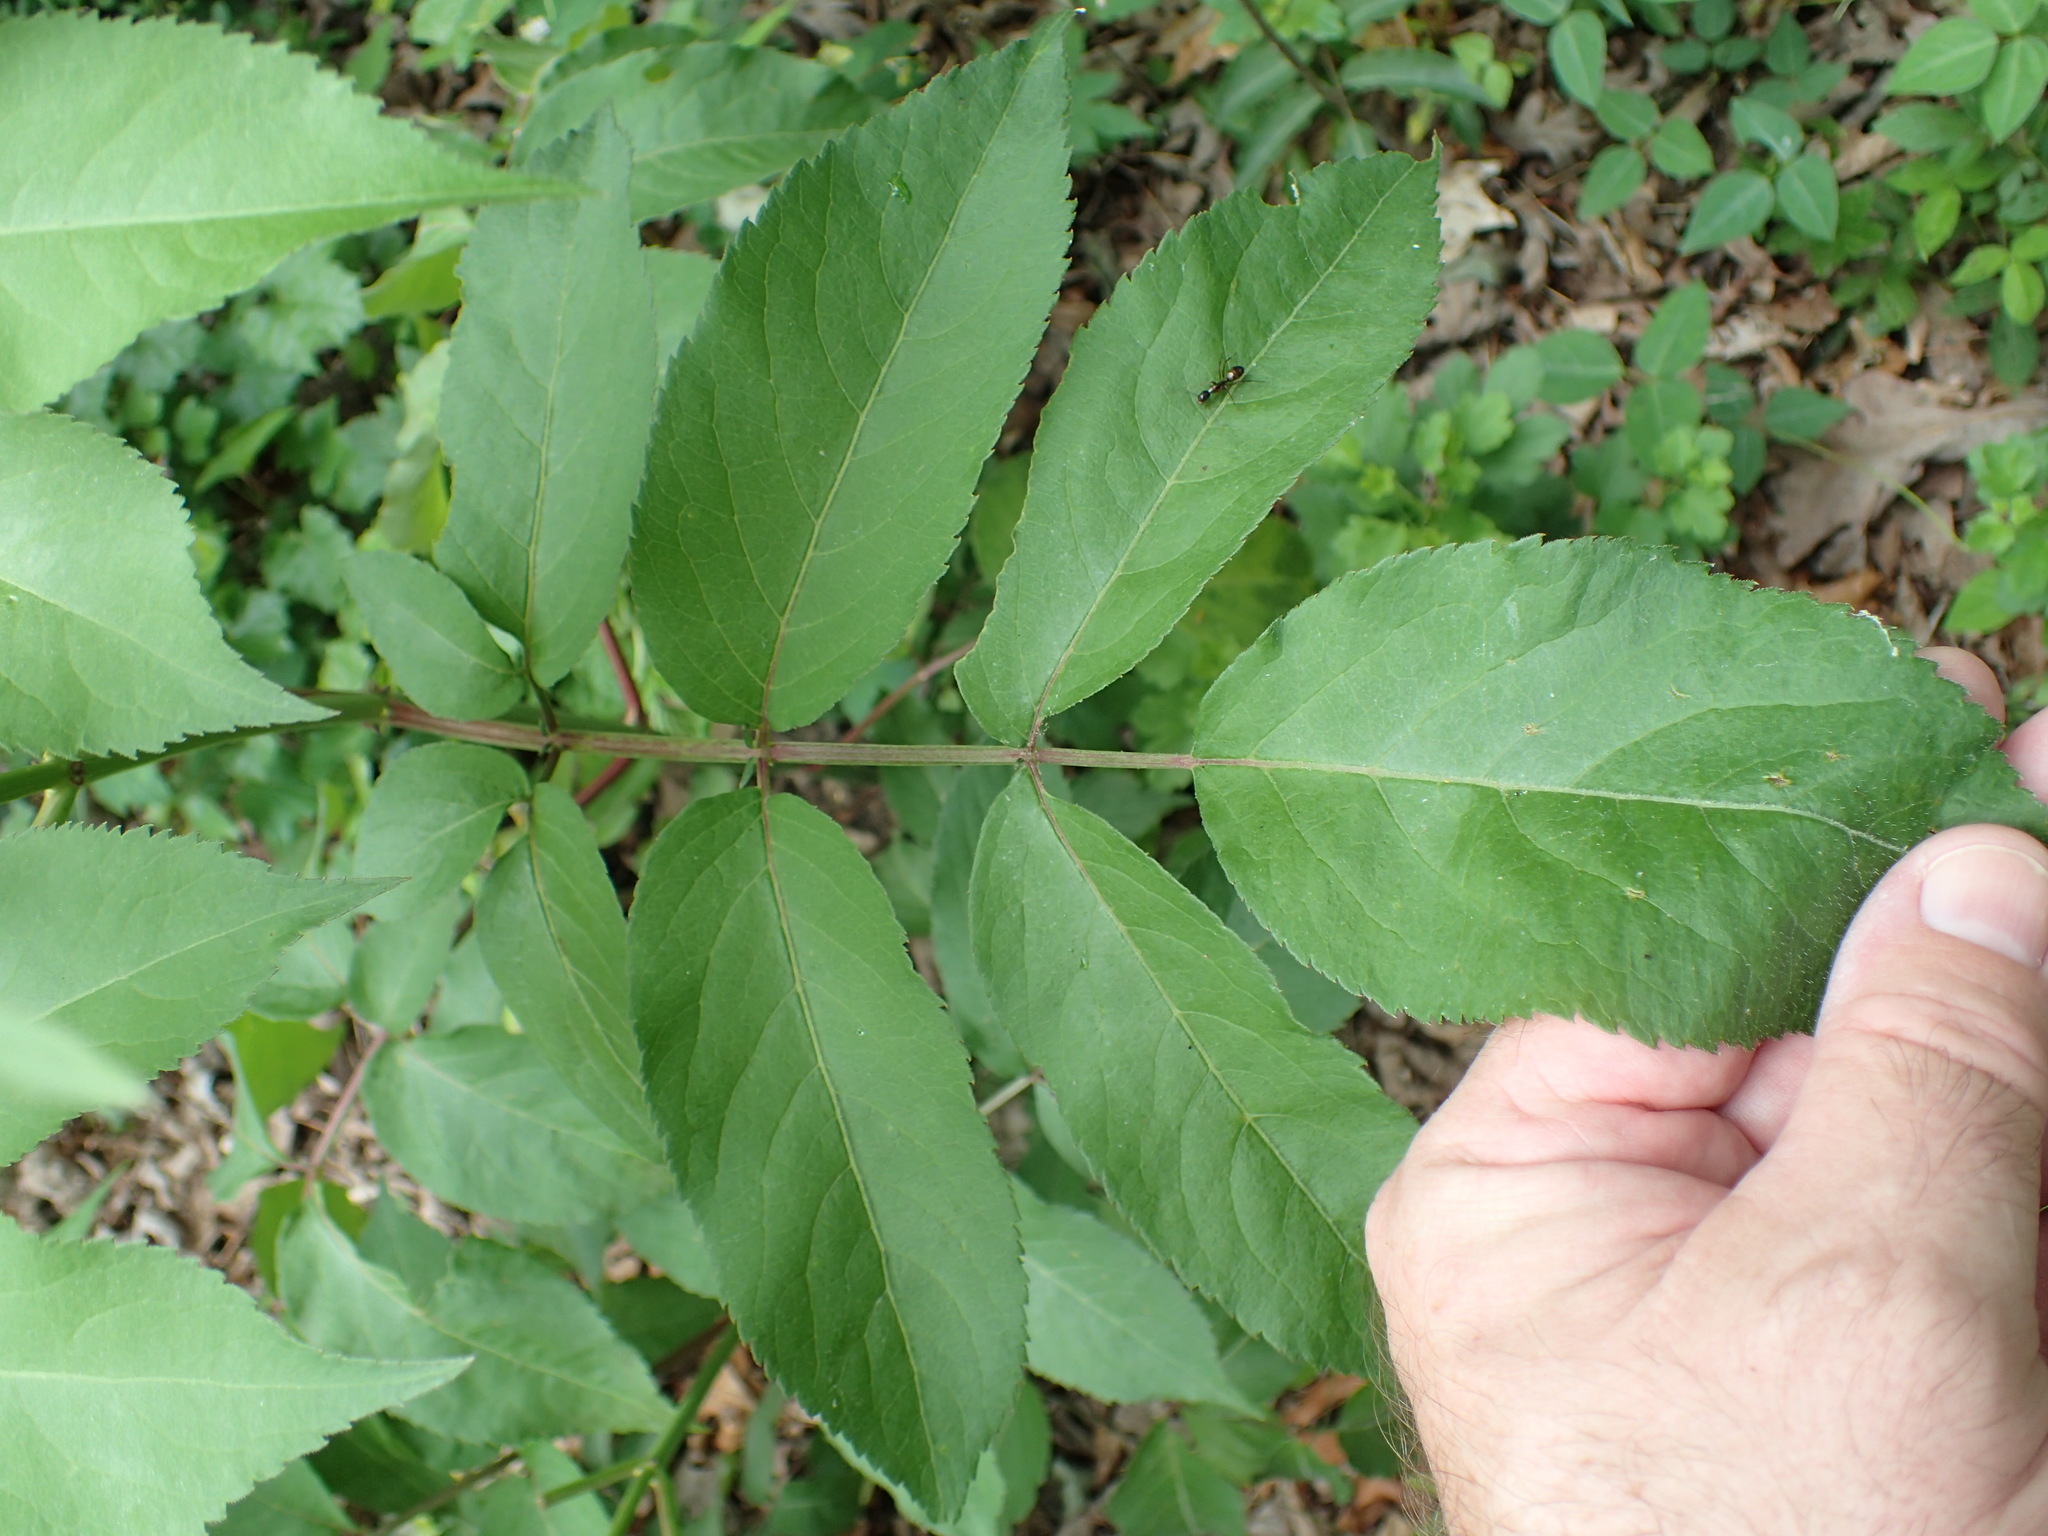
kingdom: Plantae
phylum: Tracheophyta
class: Magnoliopsida
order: Dipsacales
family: Viburnaceae
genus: Sambucus
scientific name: Sambucus canadensis
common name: American elder
